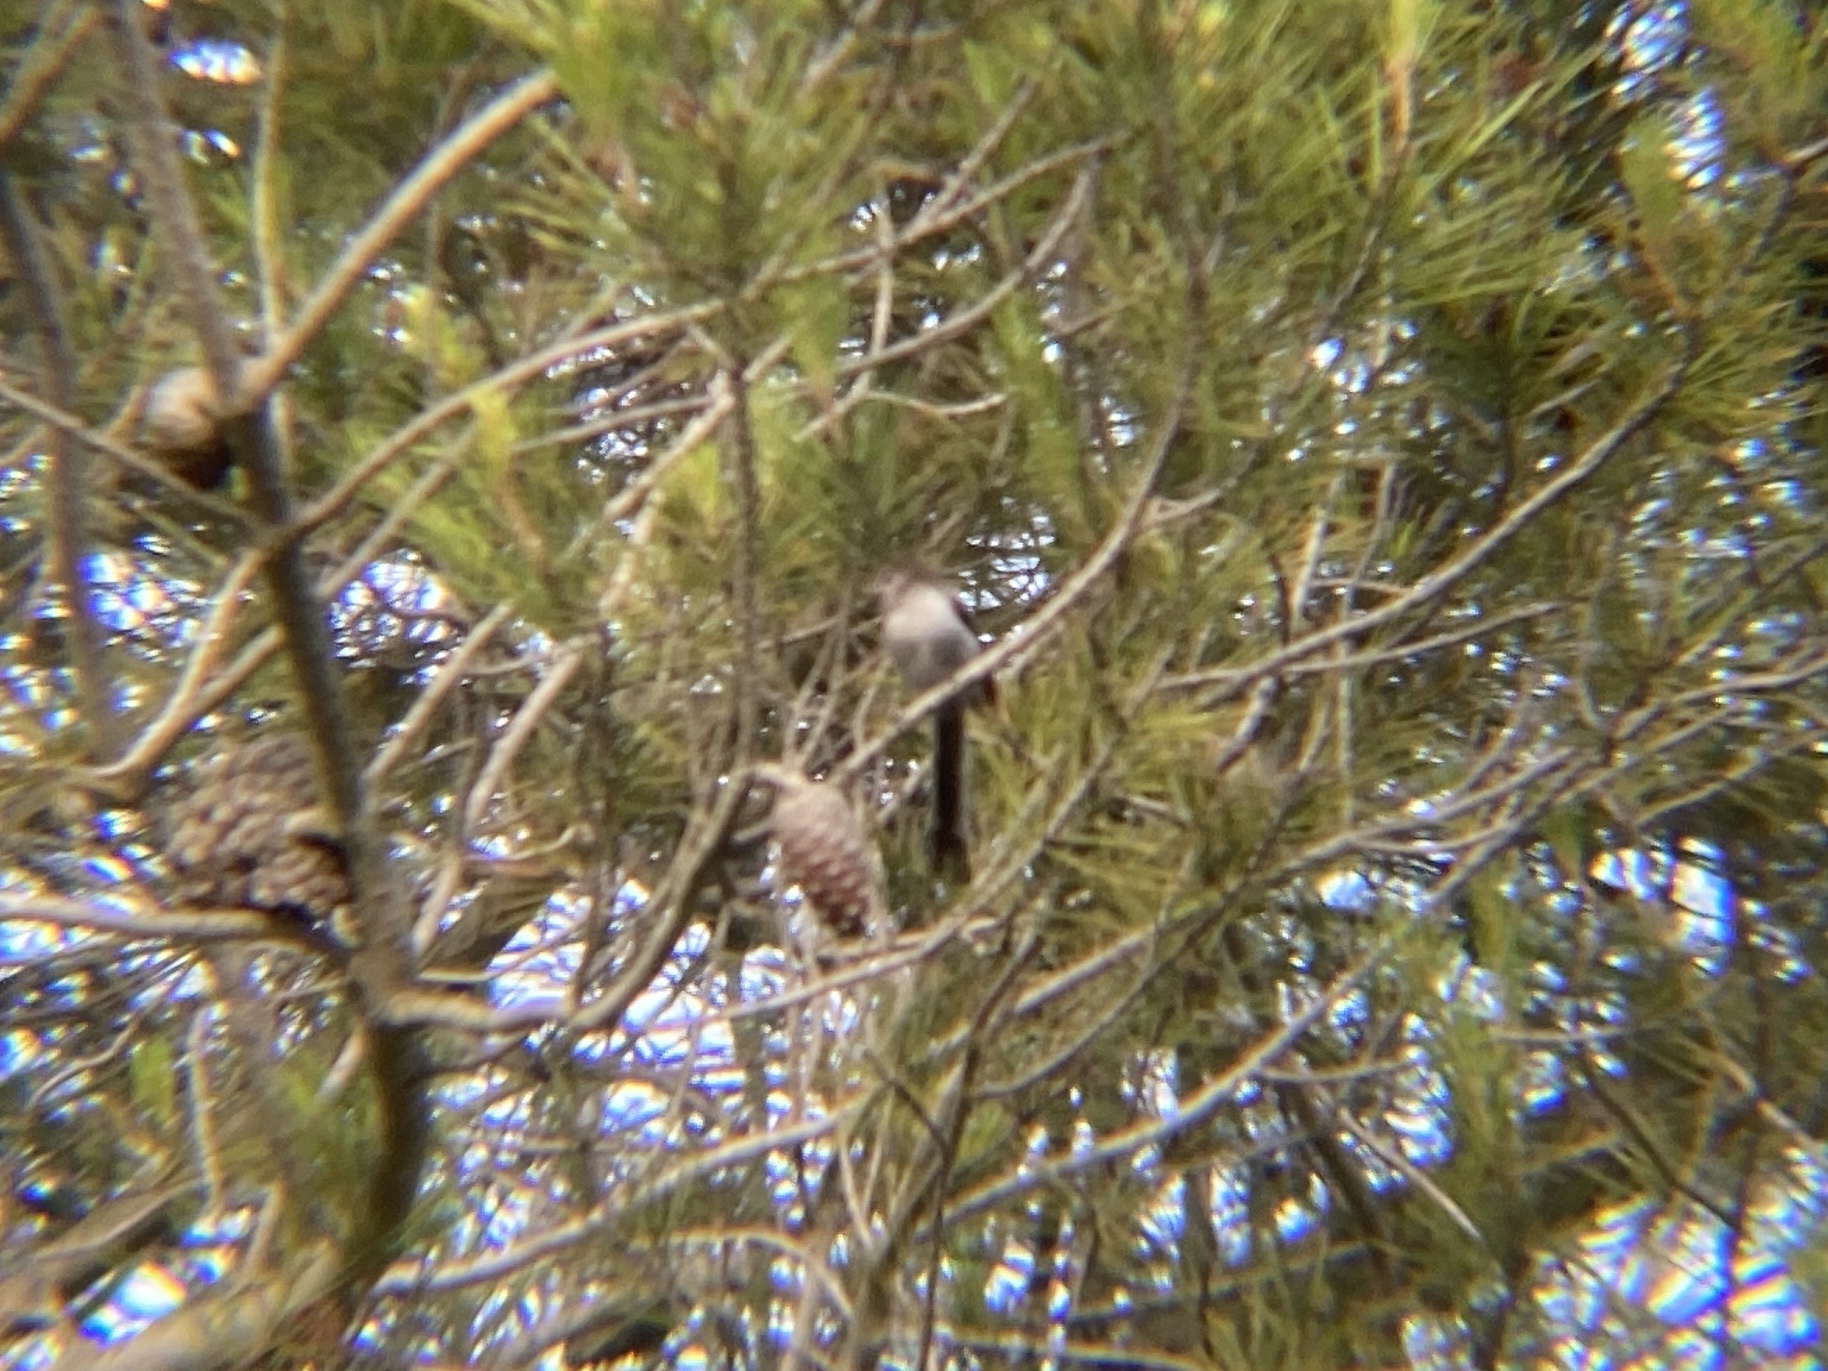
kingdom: Animalia
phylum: Chordata
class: Aves
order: Passeriformes
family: Aegithalidae
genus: Aegithalos
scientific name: Aegithalos caudatus
